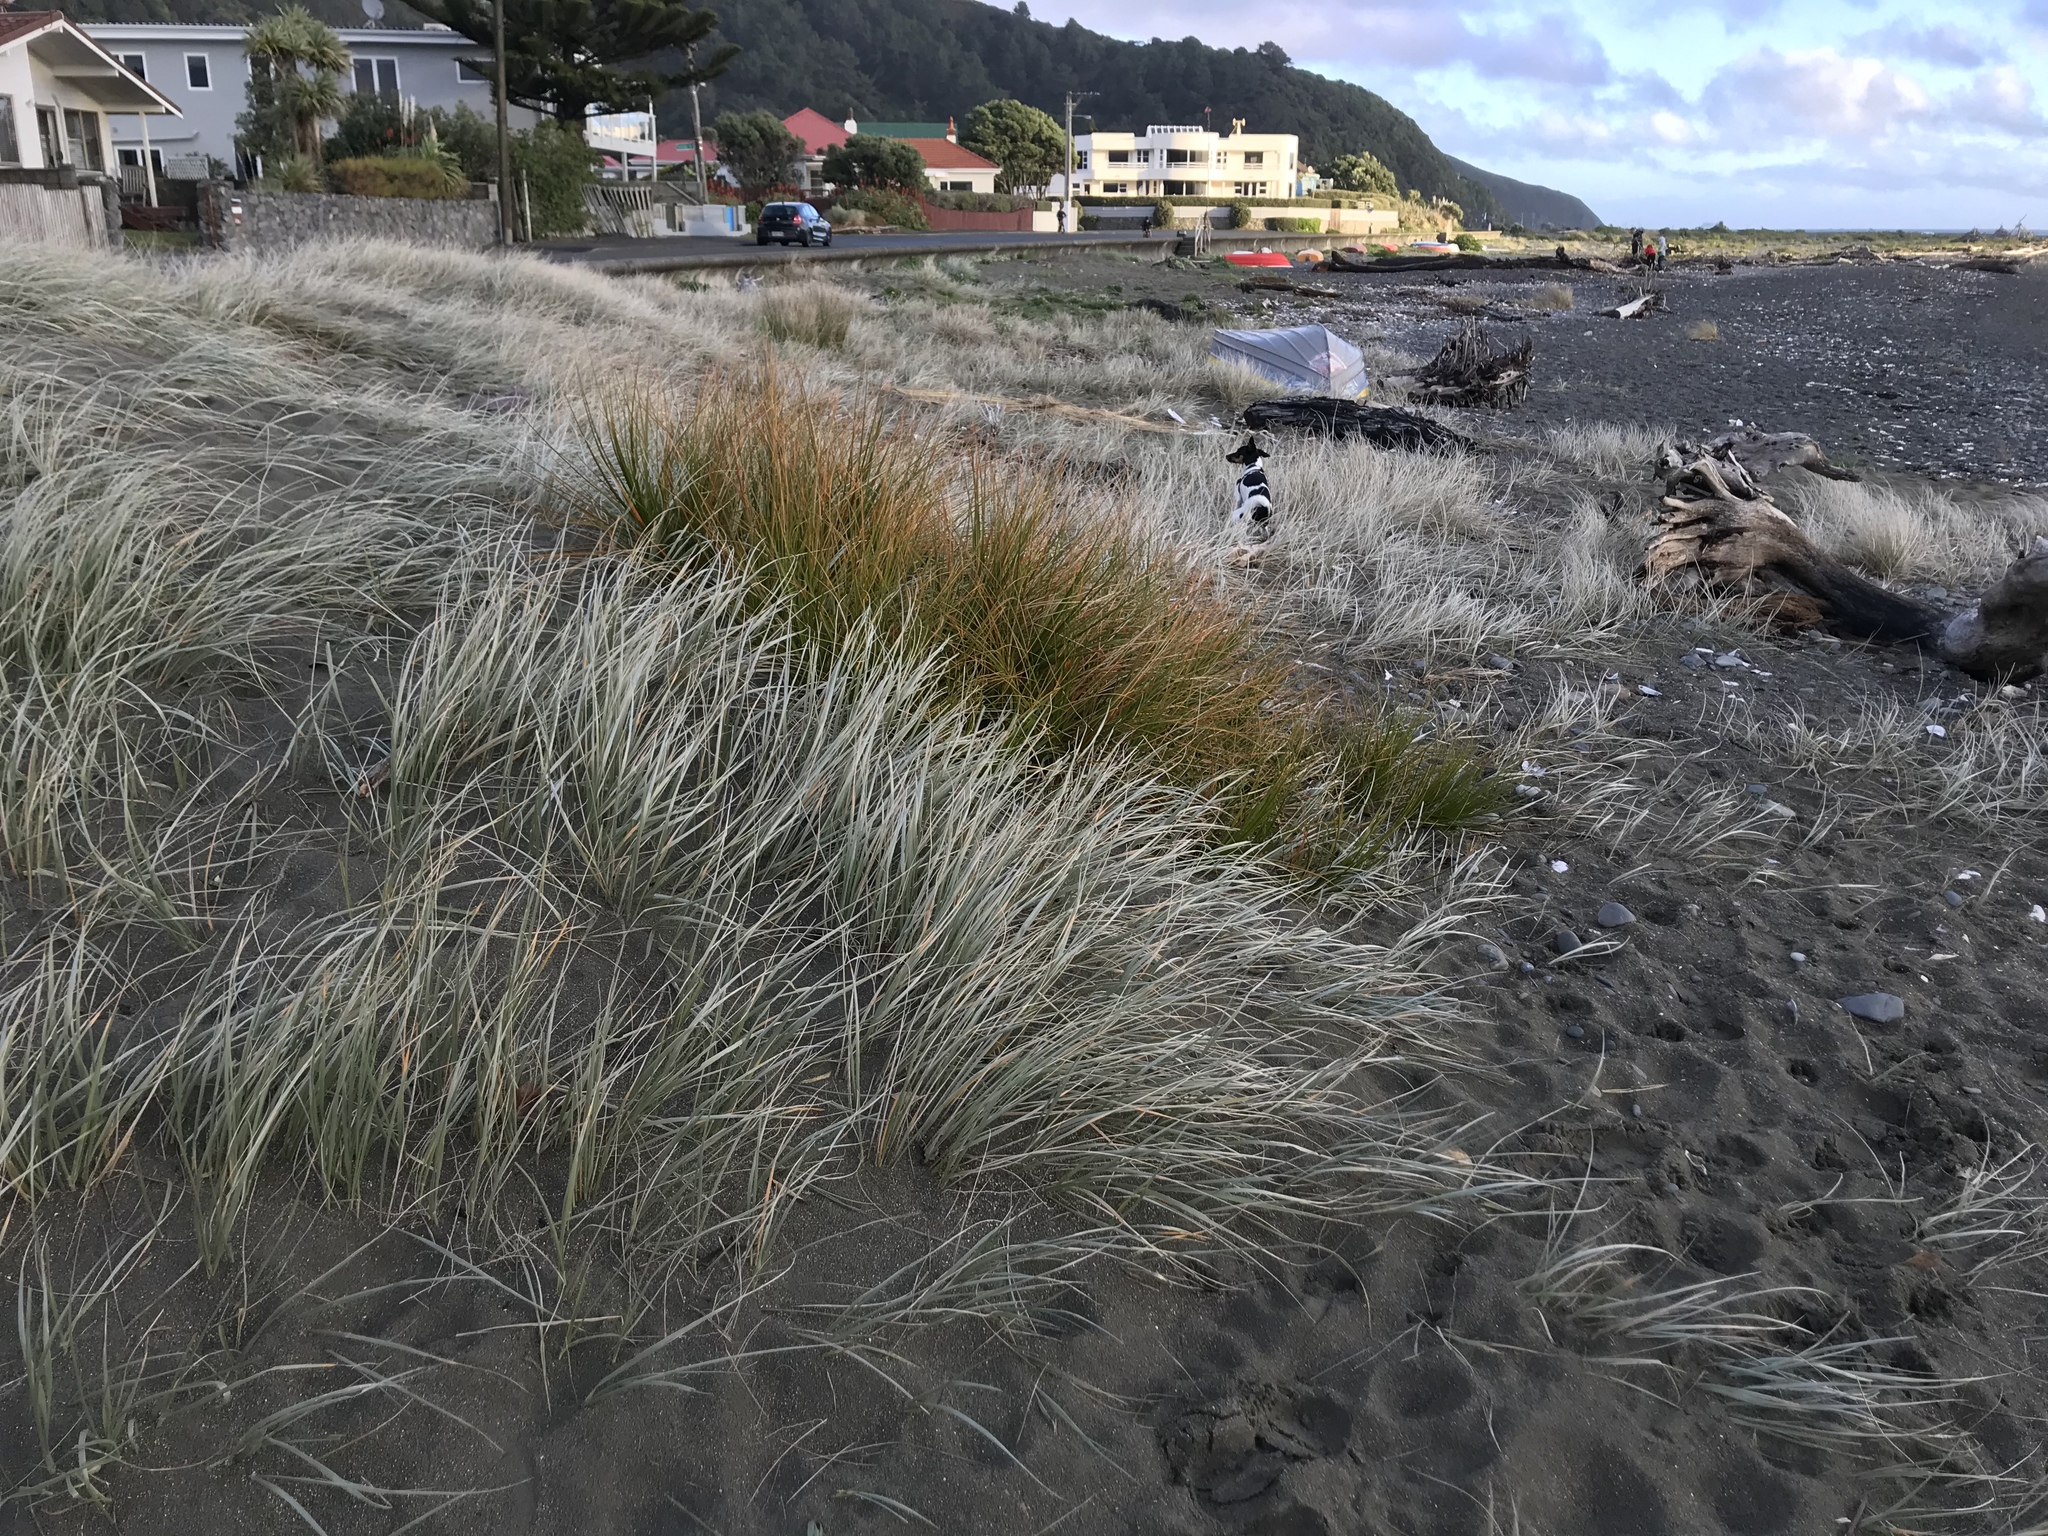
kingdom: Plantae
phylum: Tracheophyta
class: Liliopsida
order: Poales
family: Poaceae
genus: Spinifex
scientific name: Spinifex sericeus
